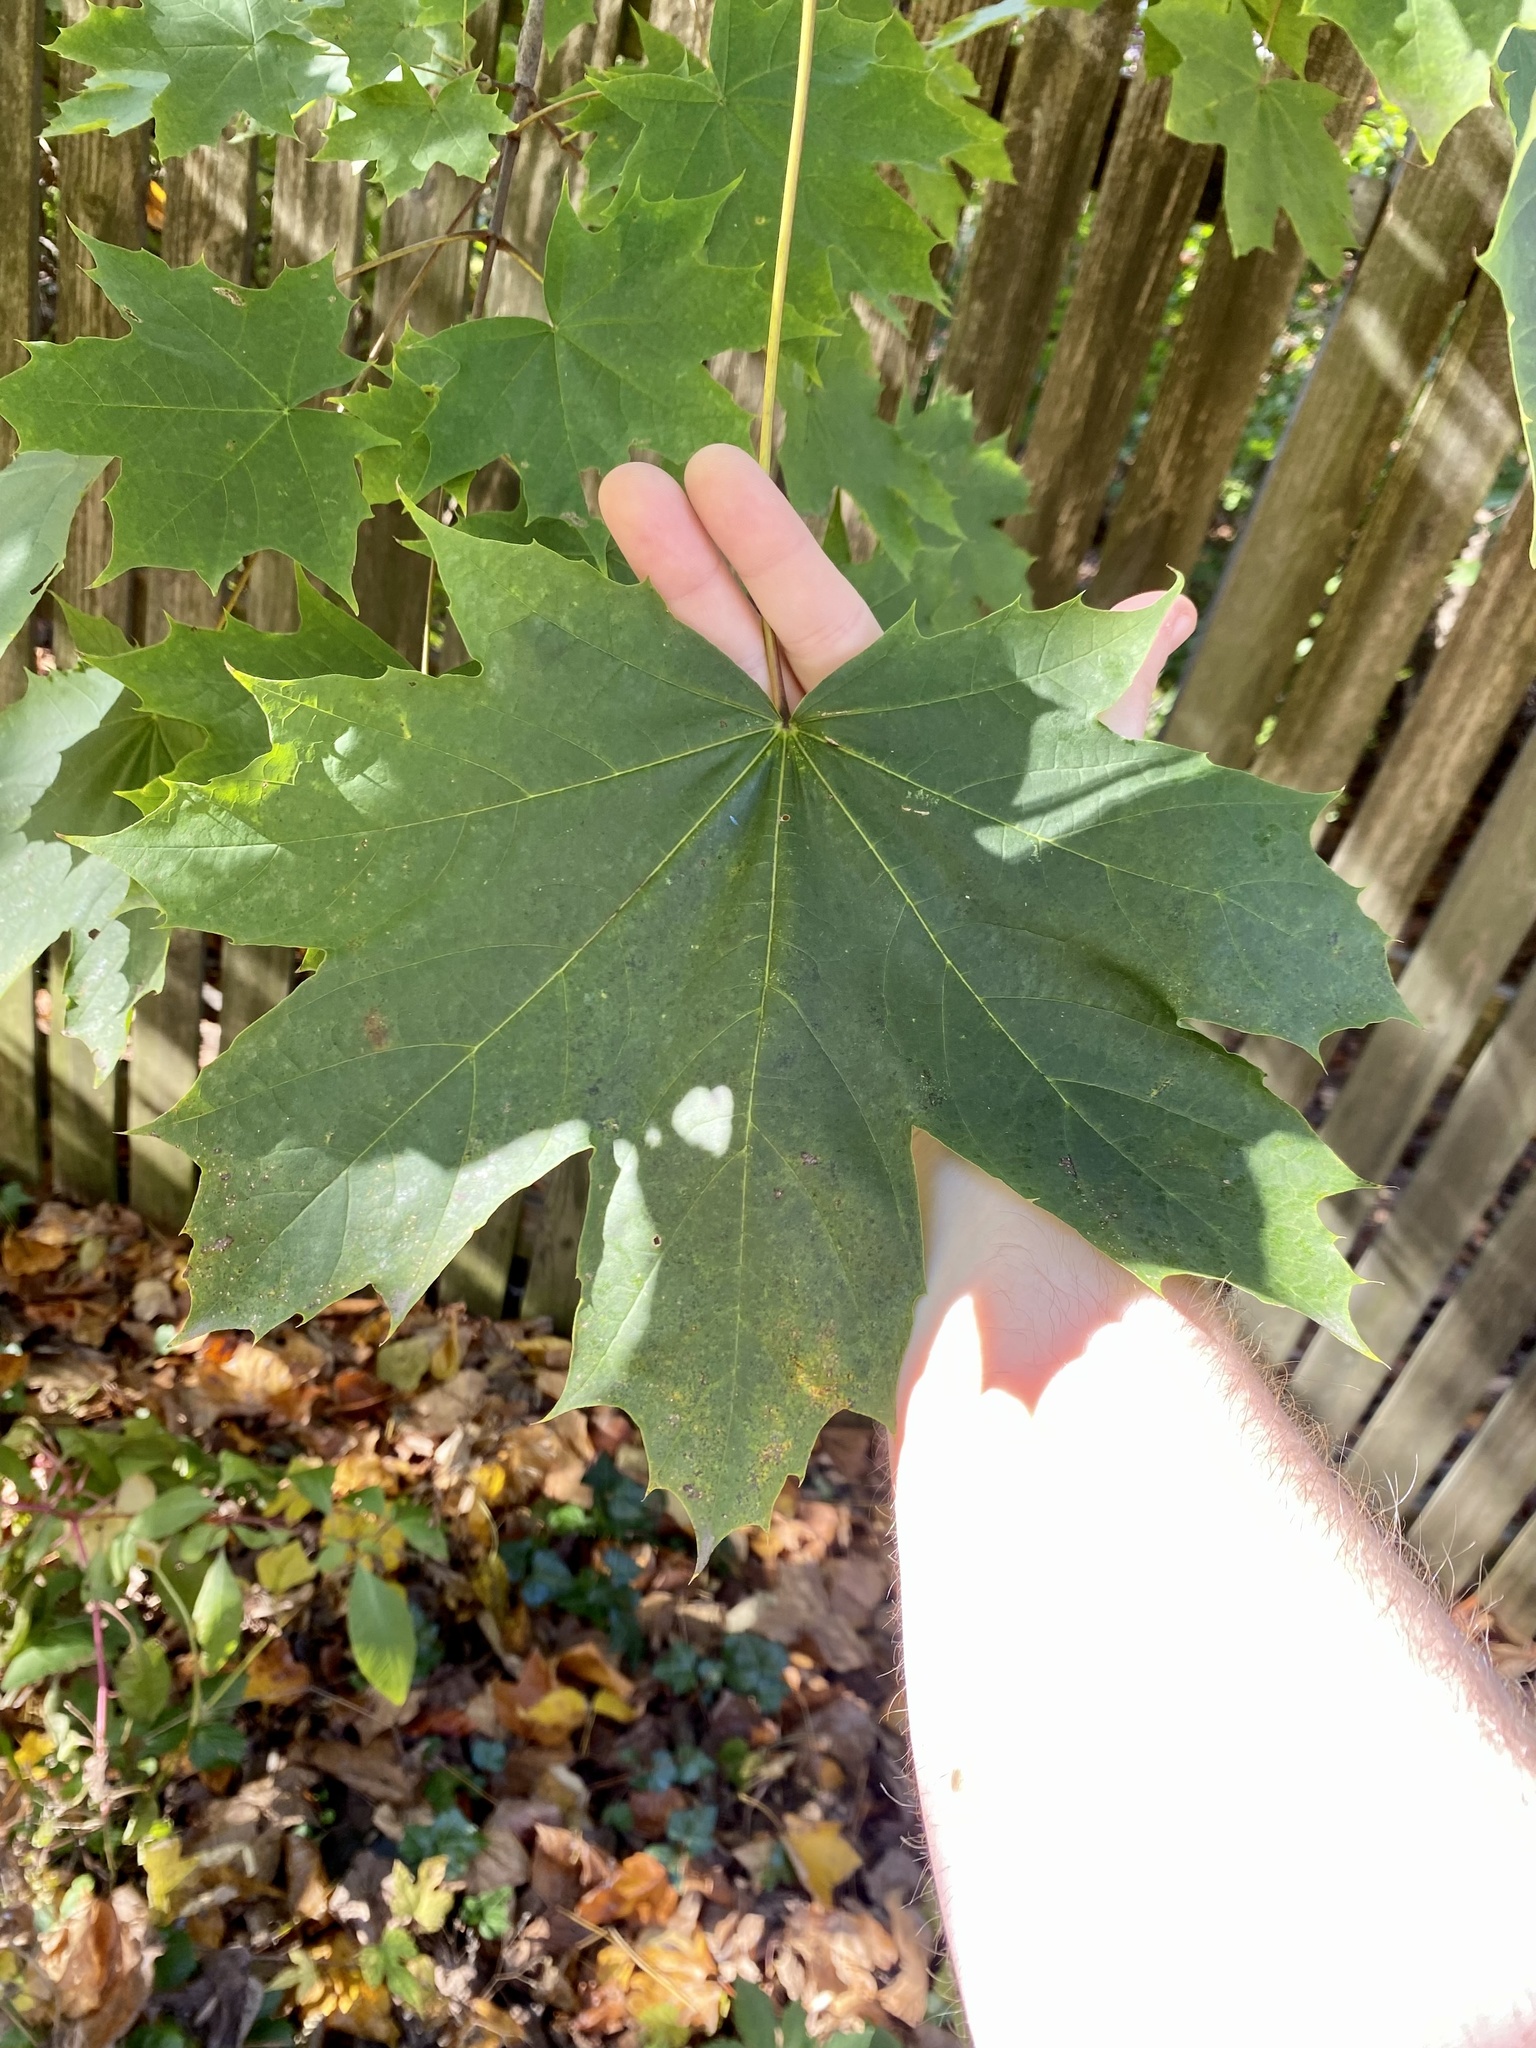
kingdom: Plantae
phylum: Tracheophyta
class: Magnoliopsida
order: Sapindales
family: Sapindaceae
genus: Acer
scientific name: Acer platanoides
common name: Norway maple
